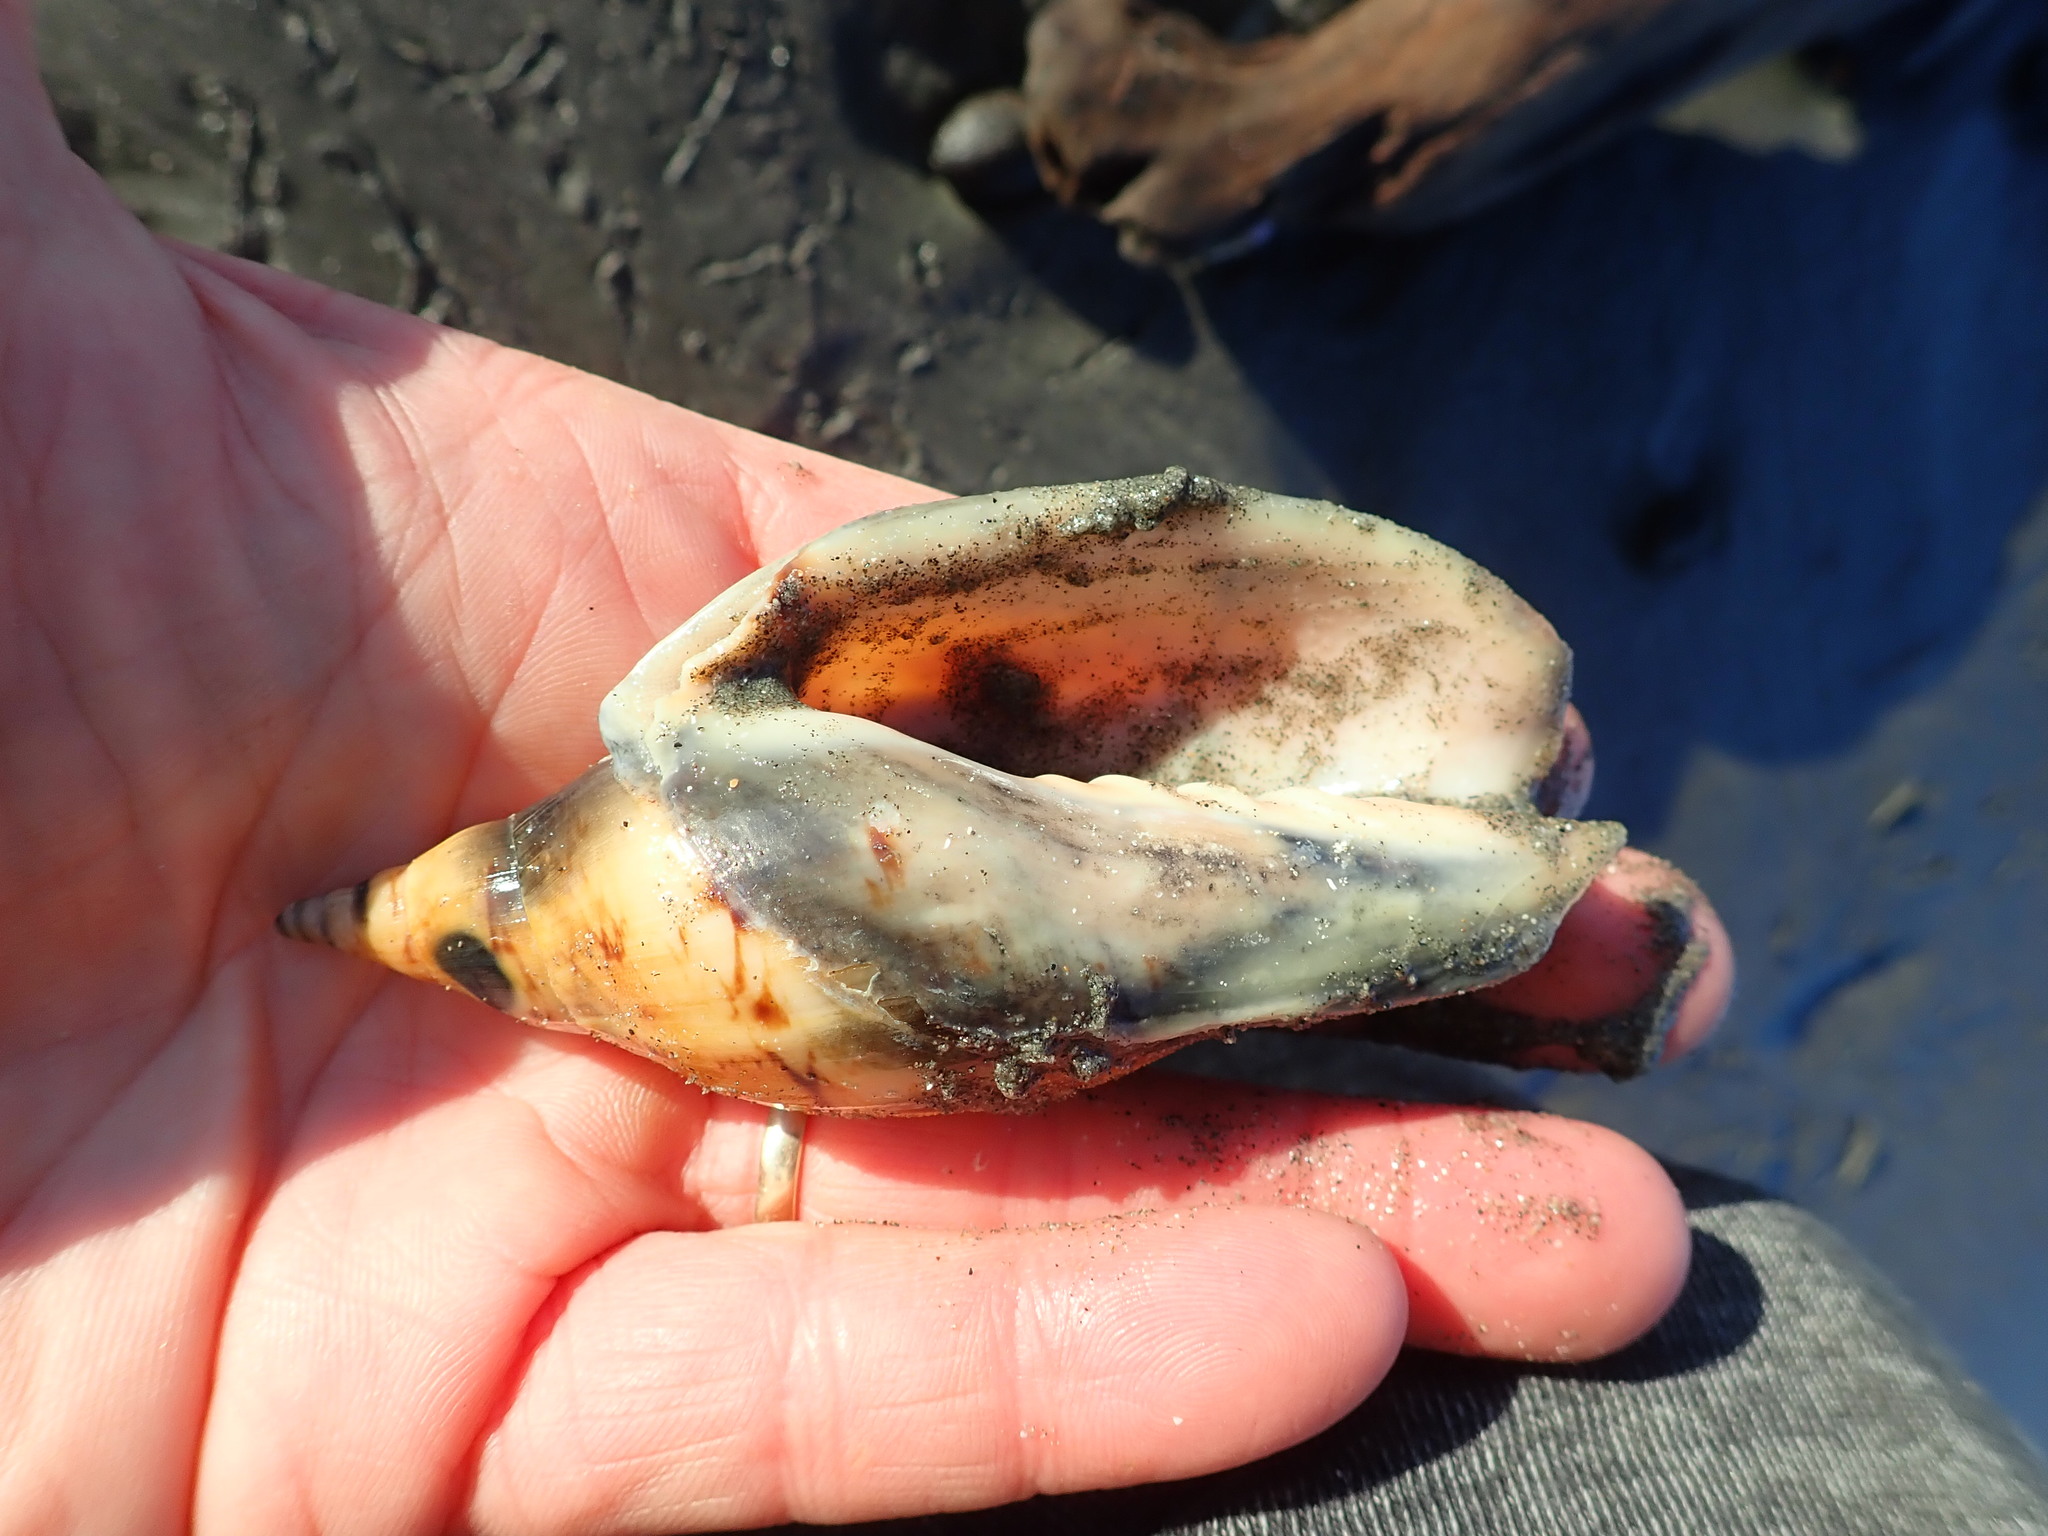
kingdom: Animalia
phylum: Mollusca
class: Gastropoda
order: Neogastropoda
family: Volutidae
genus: Alcithoe
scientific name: Alcithoe arabica
